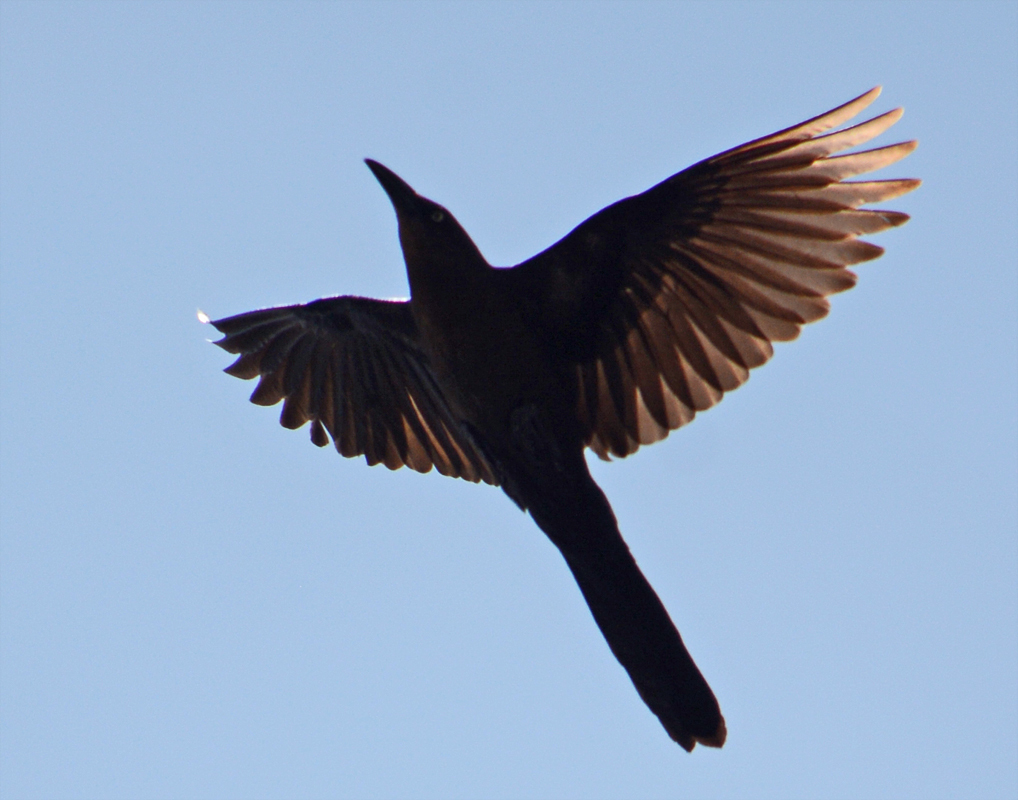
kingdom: Animalia
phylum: Chordata
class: Aves
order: Passeriformes
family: Icteridae
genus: Quiscalus
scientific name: Quiscalus mexicanus
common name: Great-tailed grackle
